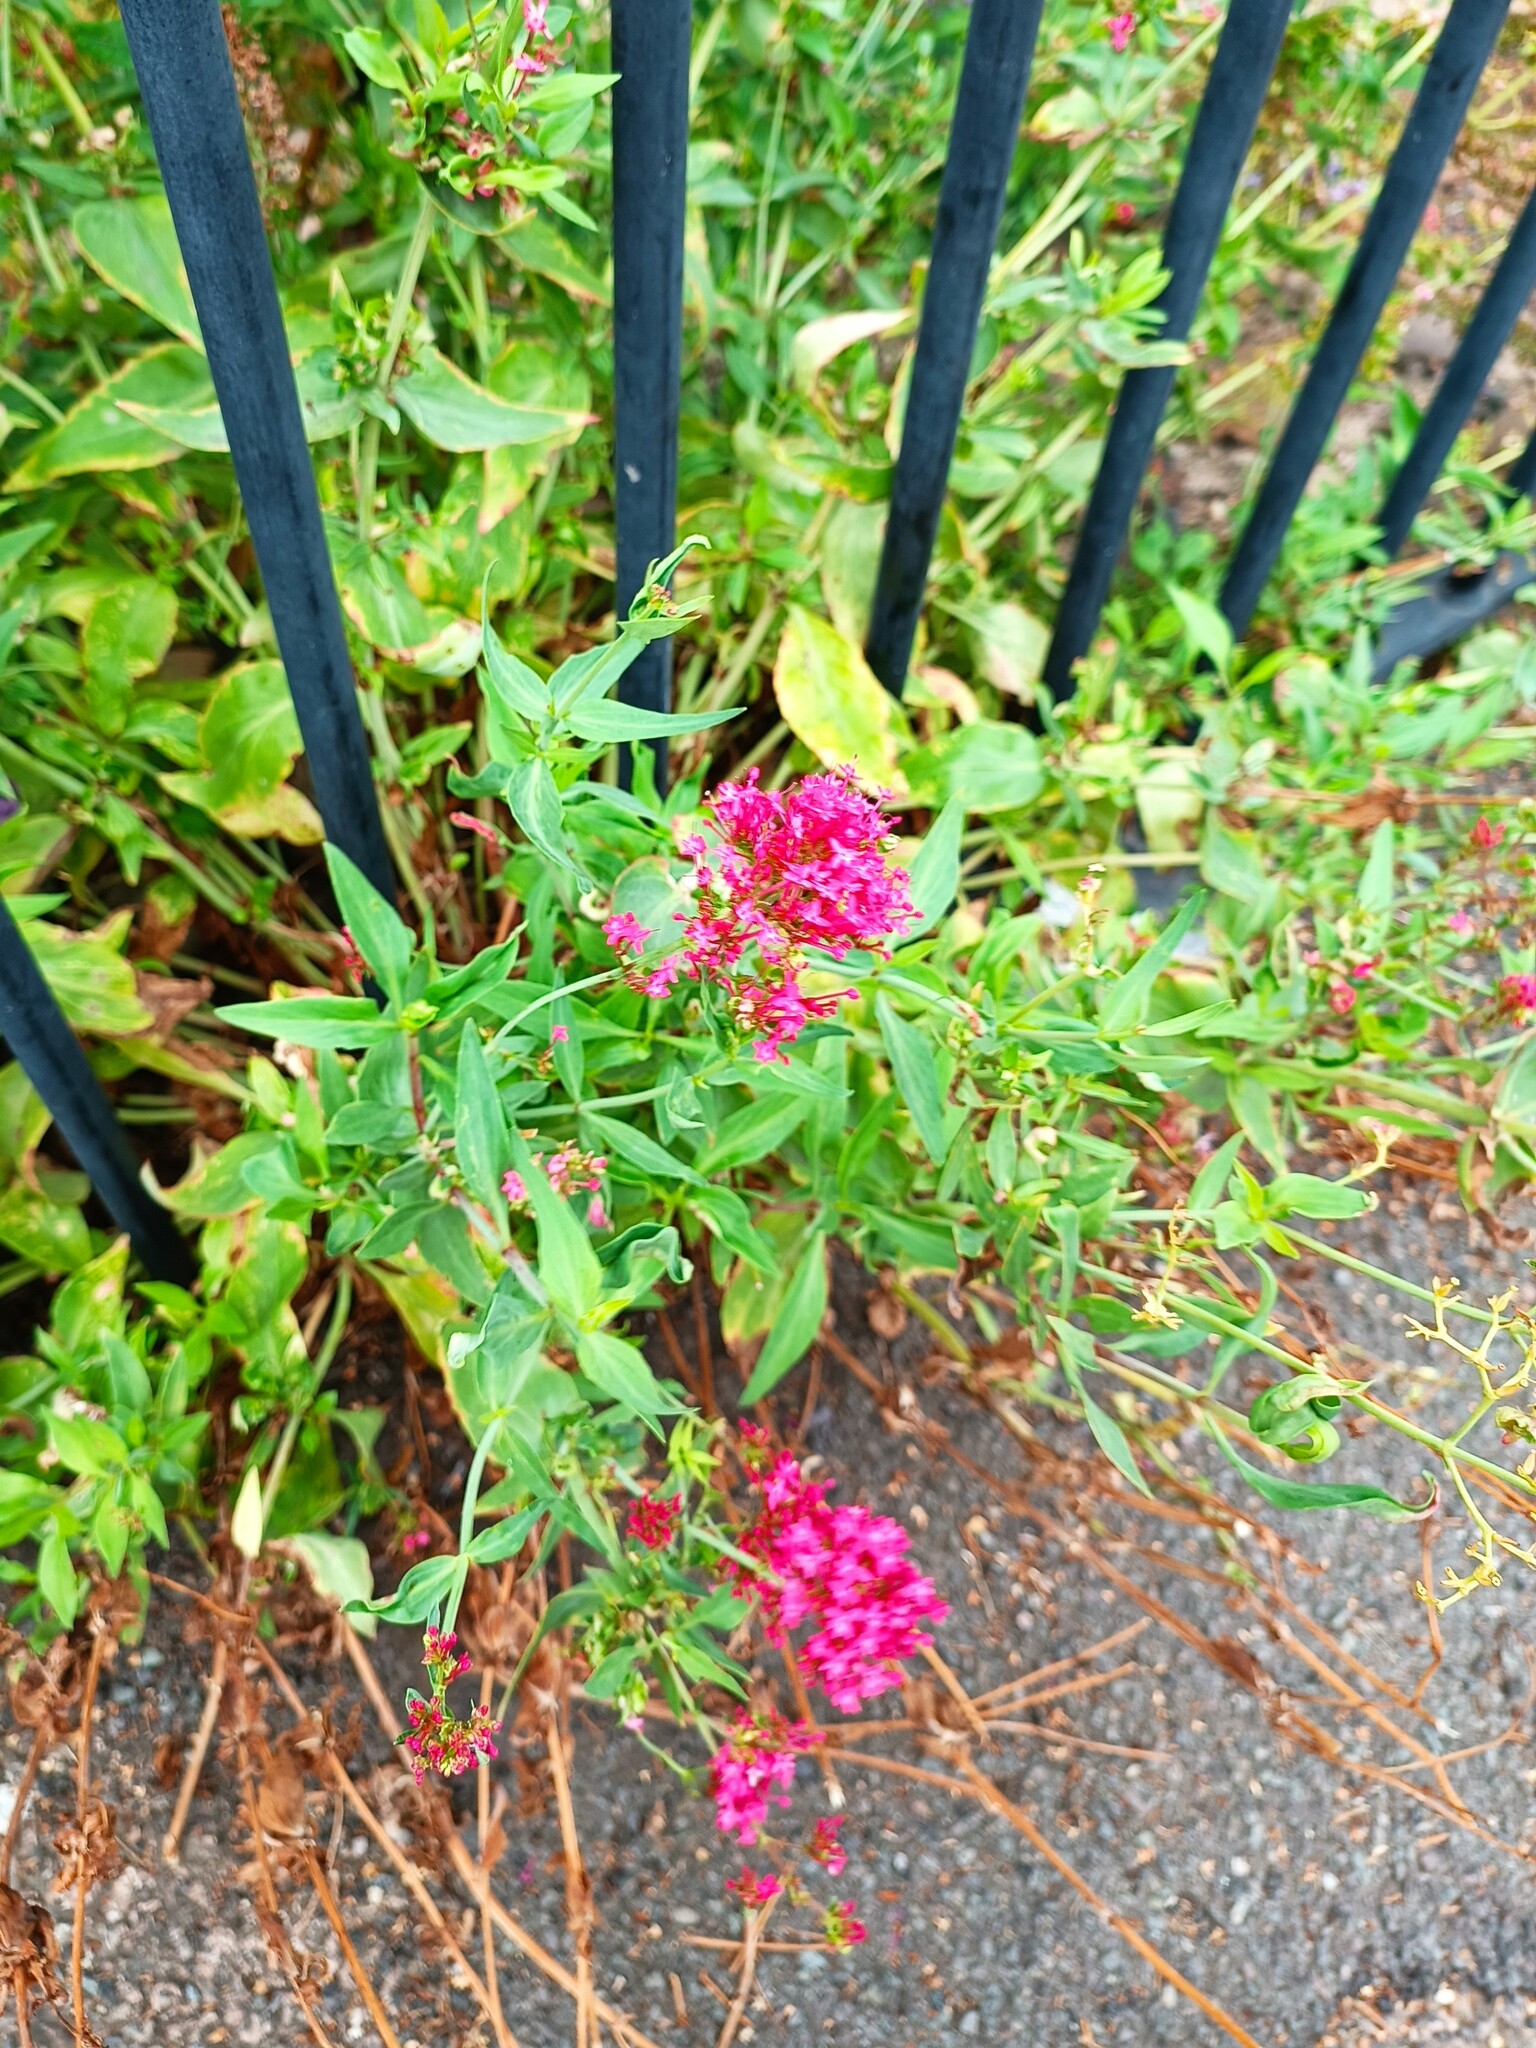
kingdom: Plantae
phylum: Tracheophyta
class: Magnoliopsida
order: Dipsacales
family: Caprifoliaceae
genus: Centranthus
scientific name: Centranthus ruber
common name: Red valerian
